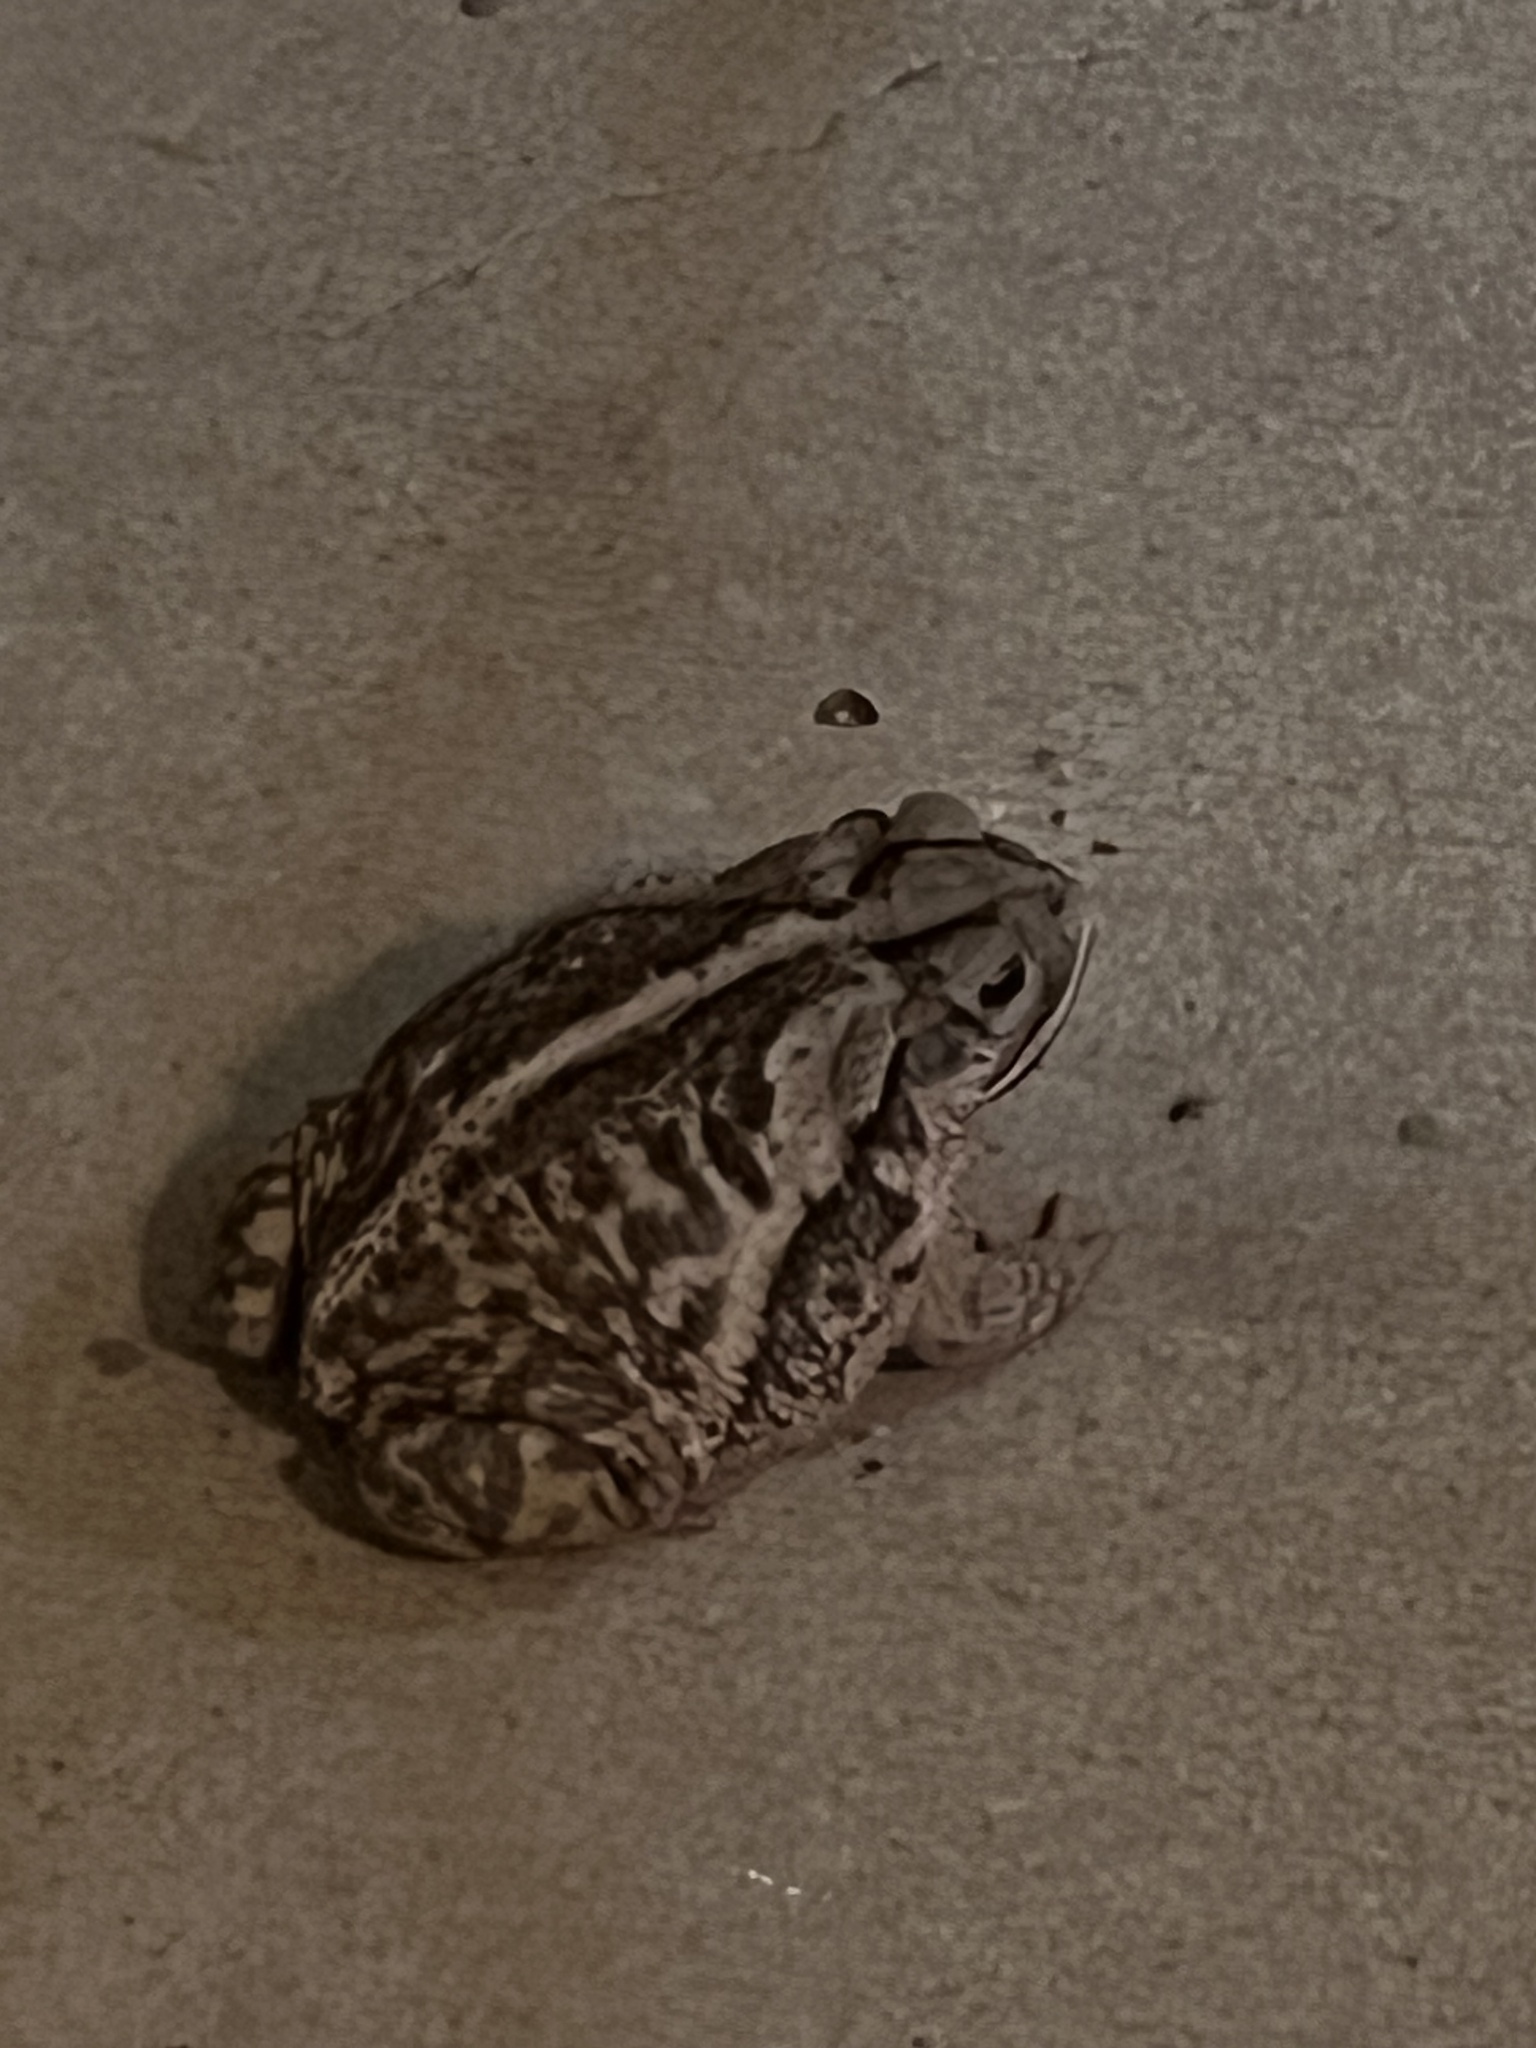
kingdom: Animalia
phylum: Chordata
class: Amphibia
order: Anura
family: Bufonidae
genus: Incilius
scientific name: Incilius nebulifer
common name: Gulf coast toad
